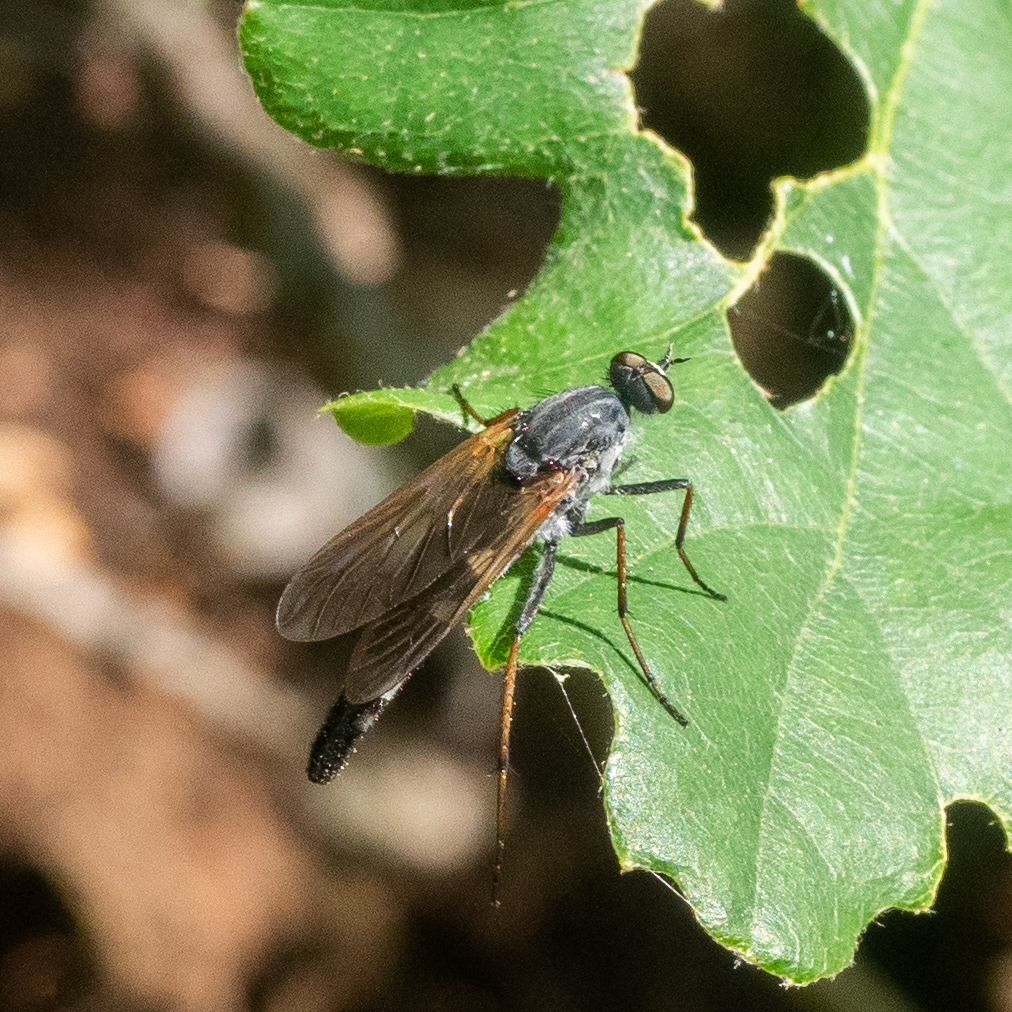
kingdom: Animalia
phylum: Arthropoda
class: Insecta
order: Diptera
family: Therevidae
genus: Pandivirilia
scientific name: Pandivirilia caesia
